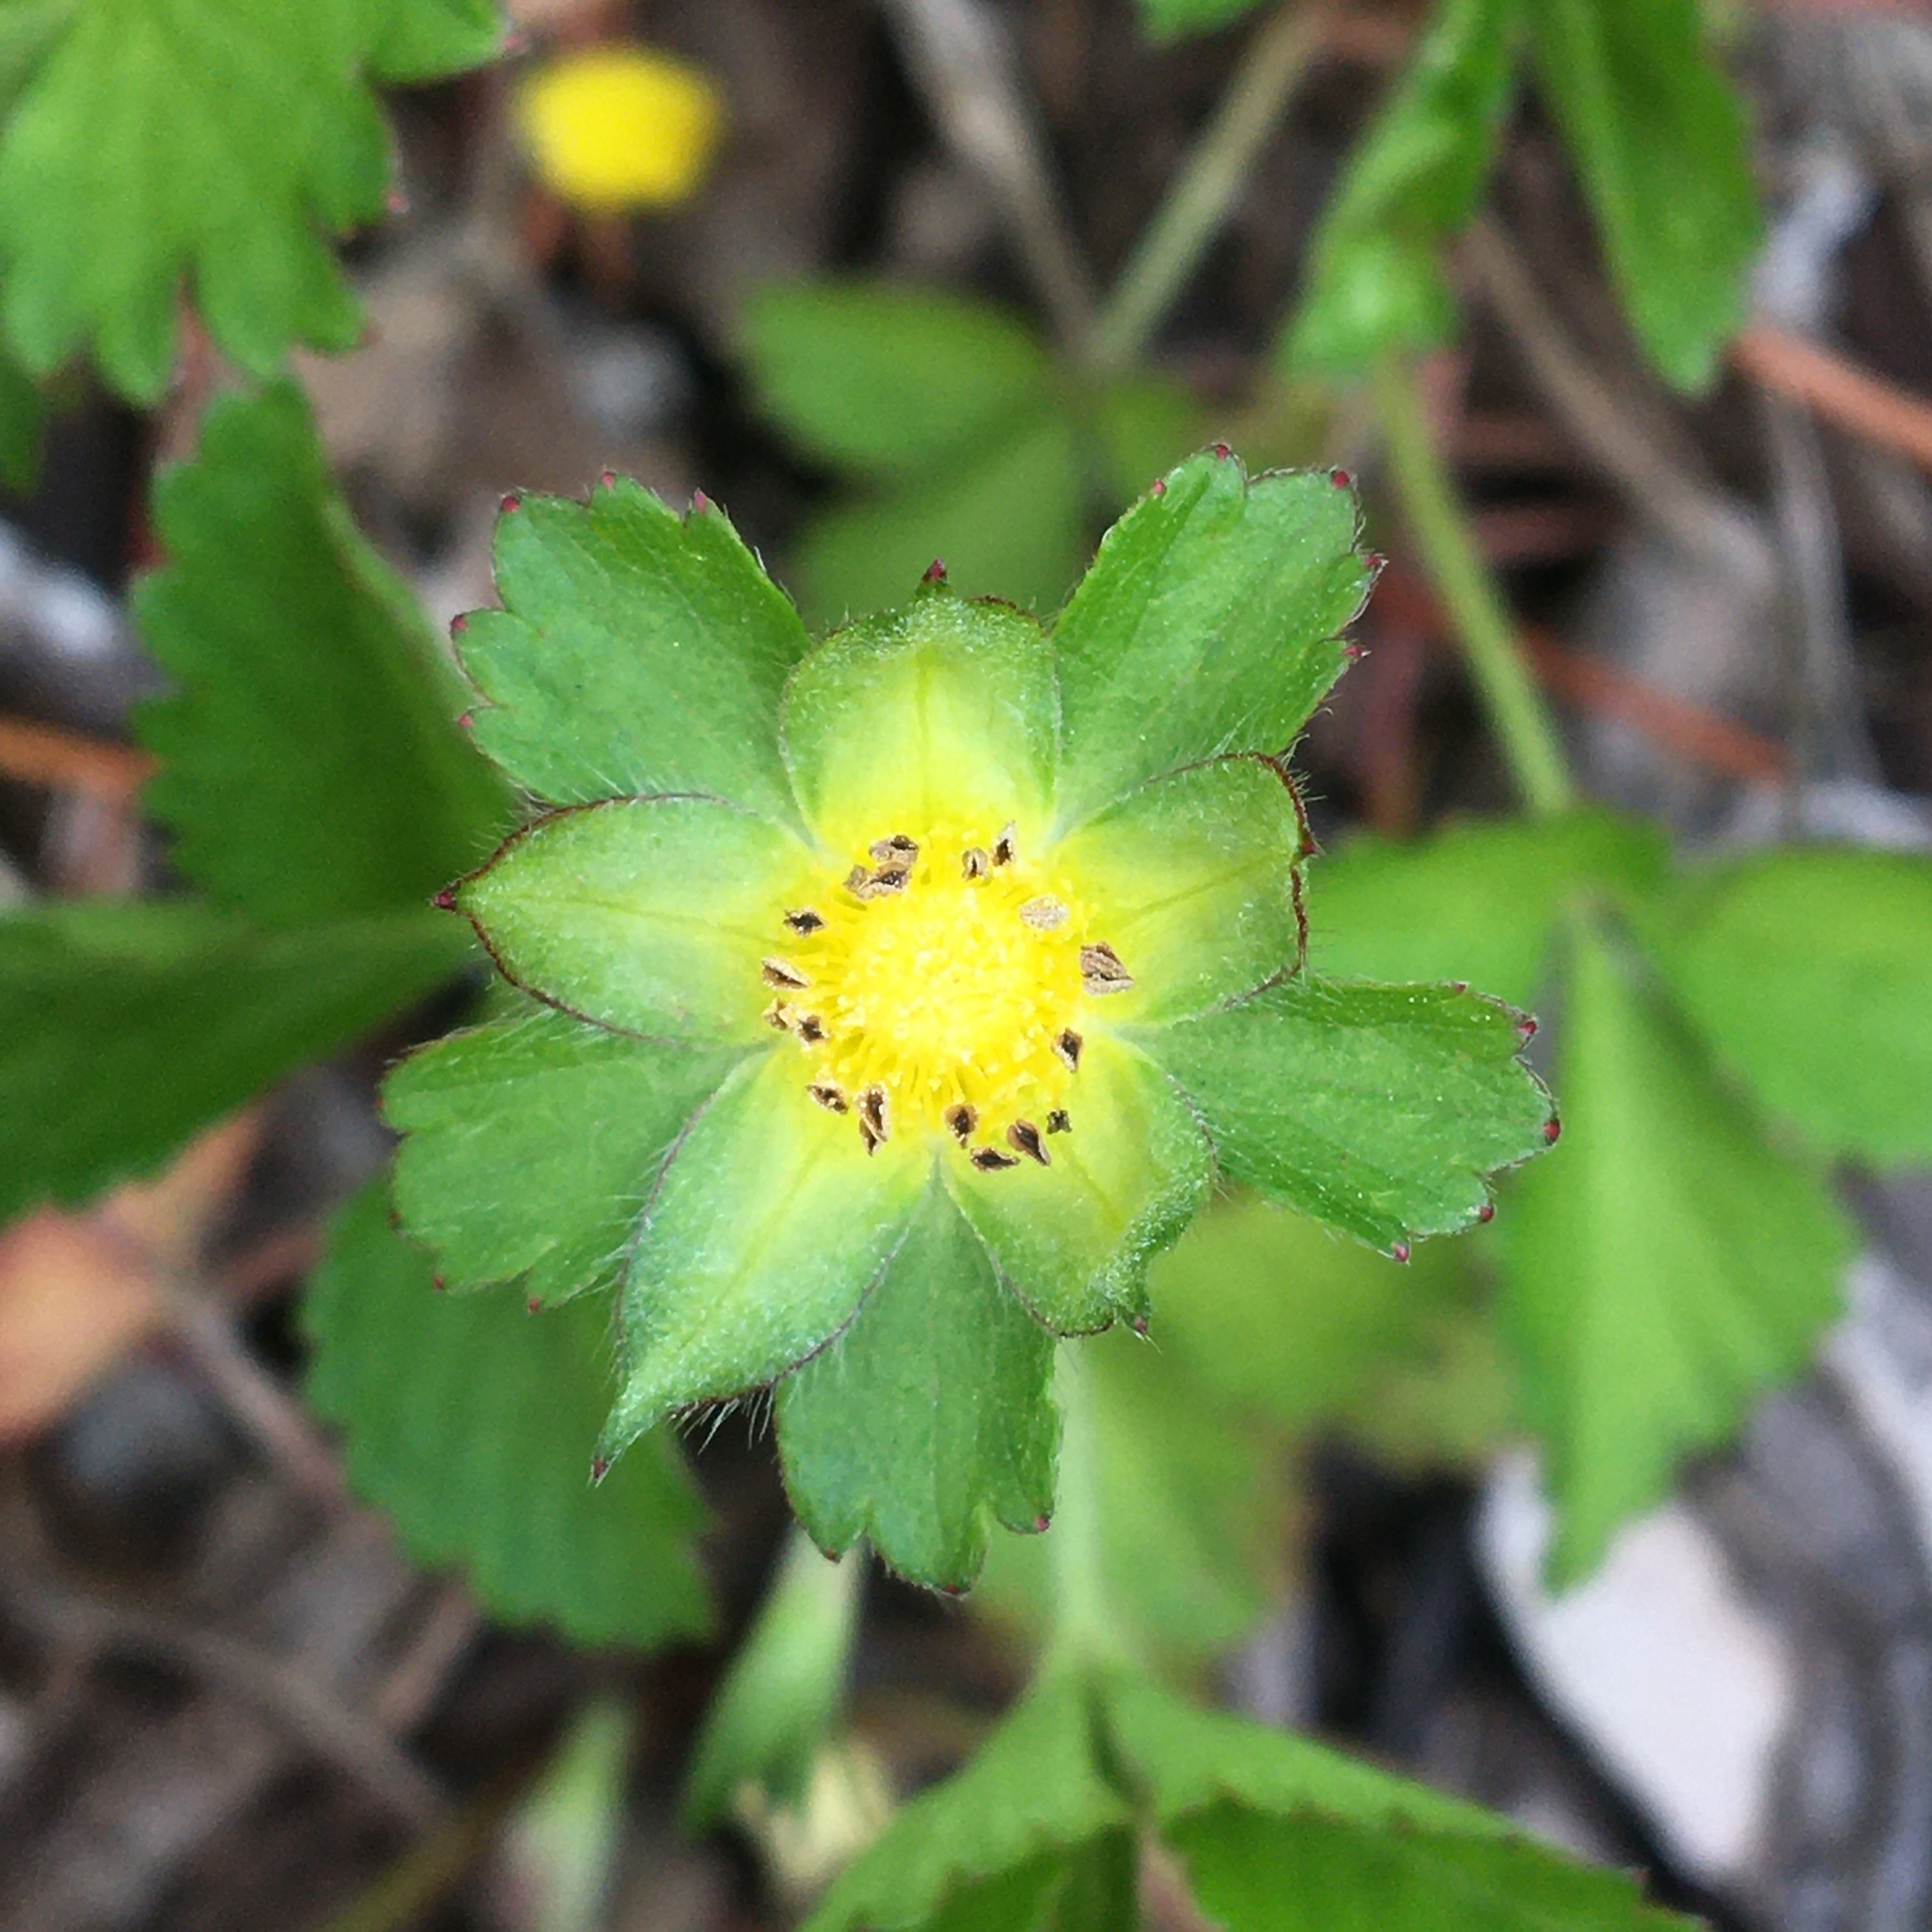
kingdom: Plantae
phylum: Tracheophyta
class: Magnoliopsida
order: Rosales
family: Rosaceae
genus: Potentilla
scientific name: Potentilla indica
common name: Yellow-flowered strawberry
